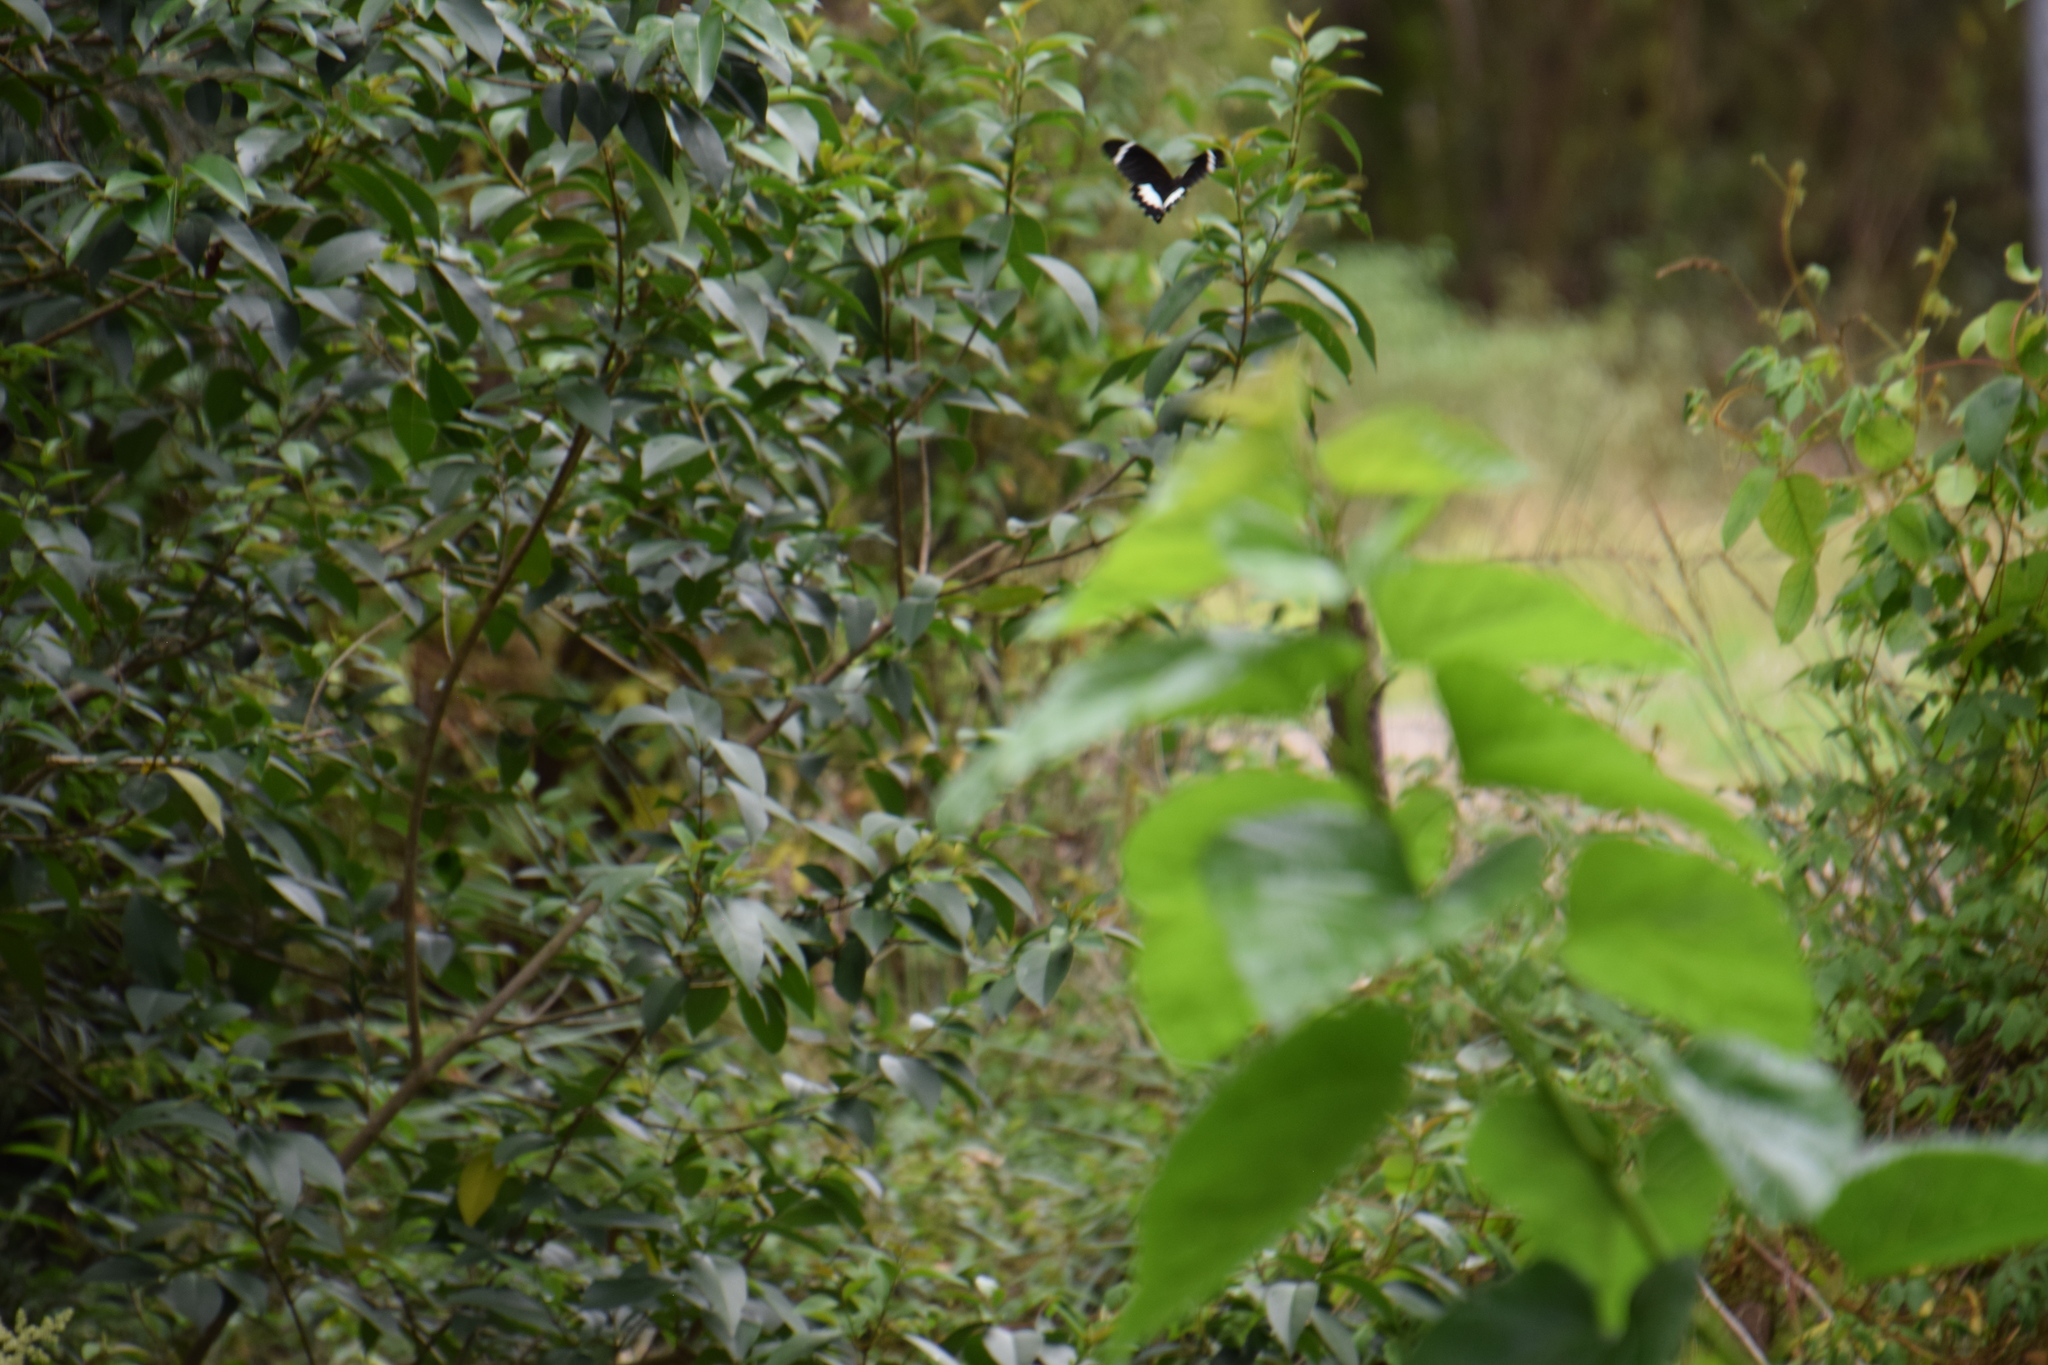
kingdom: Animalia
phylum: Arthropoda
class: Insecta
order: Lepidoptera
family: Papilionidae
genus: Papilio
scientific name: Papilio aegeus
